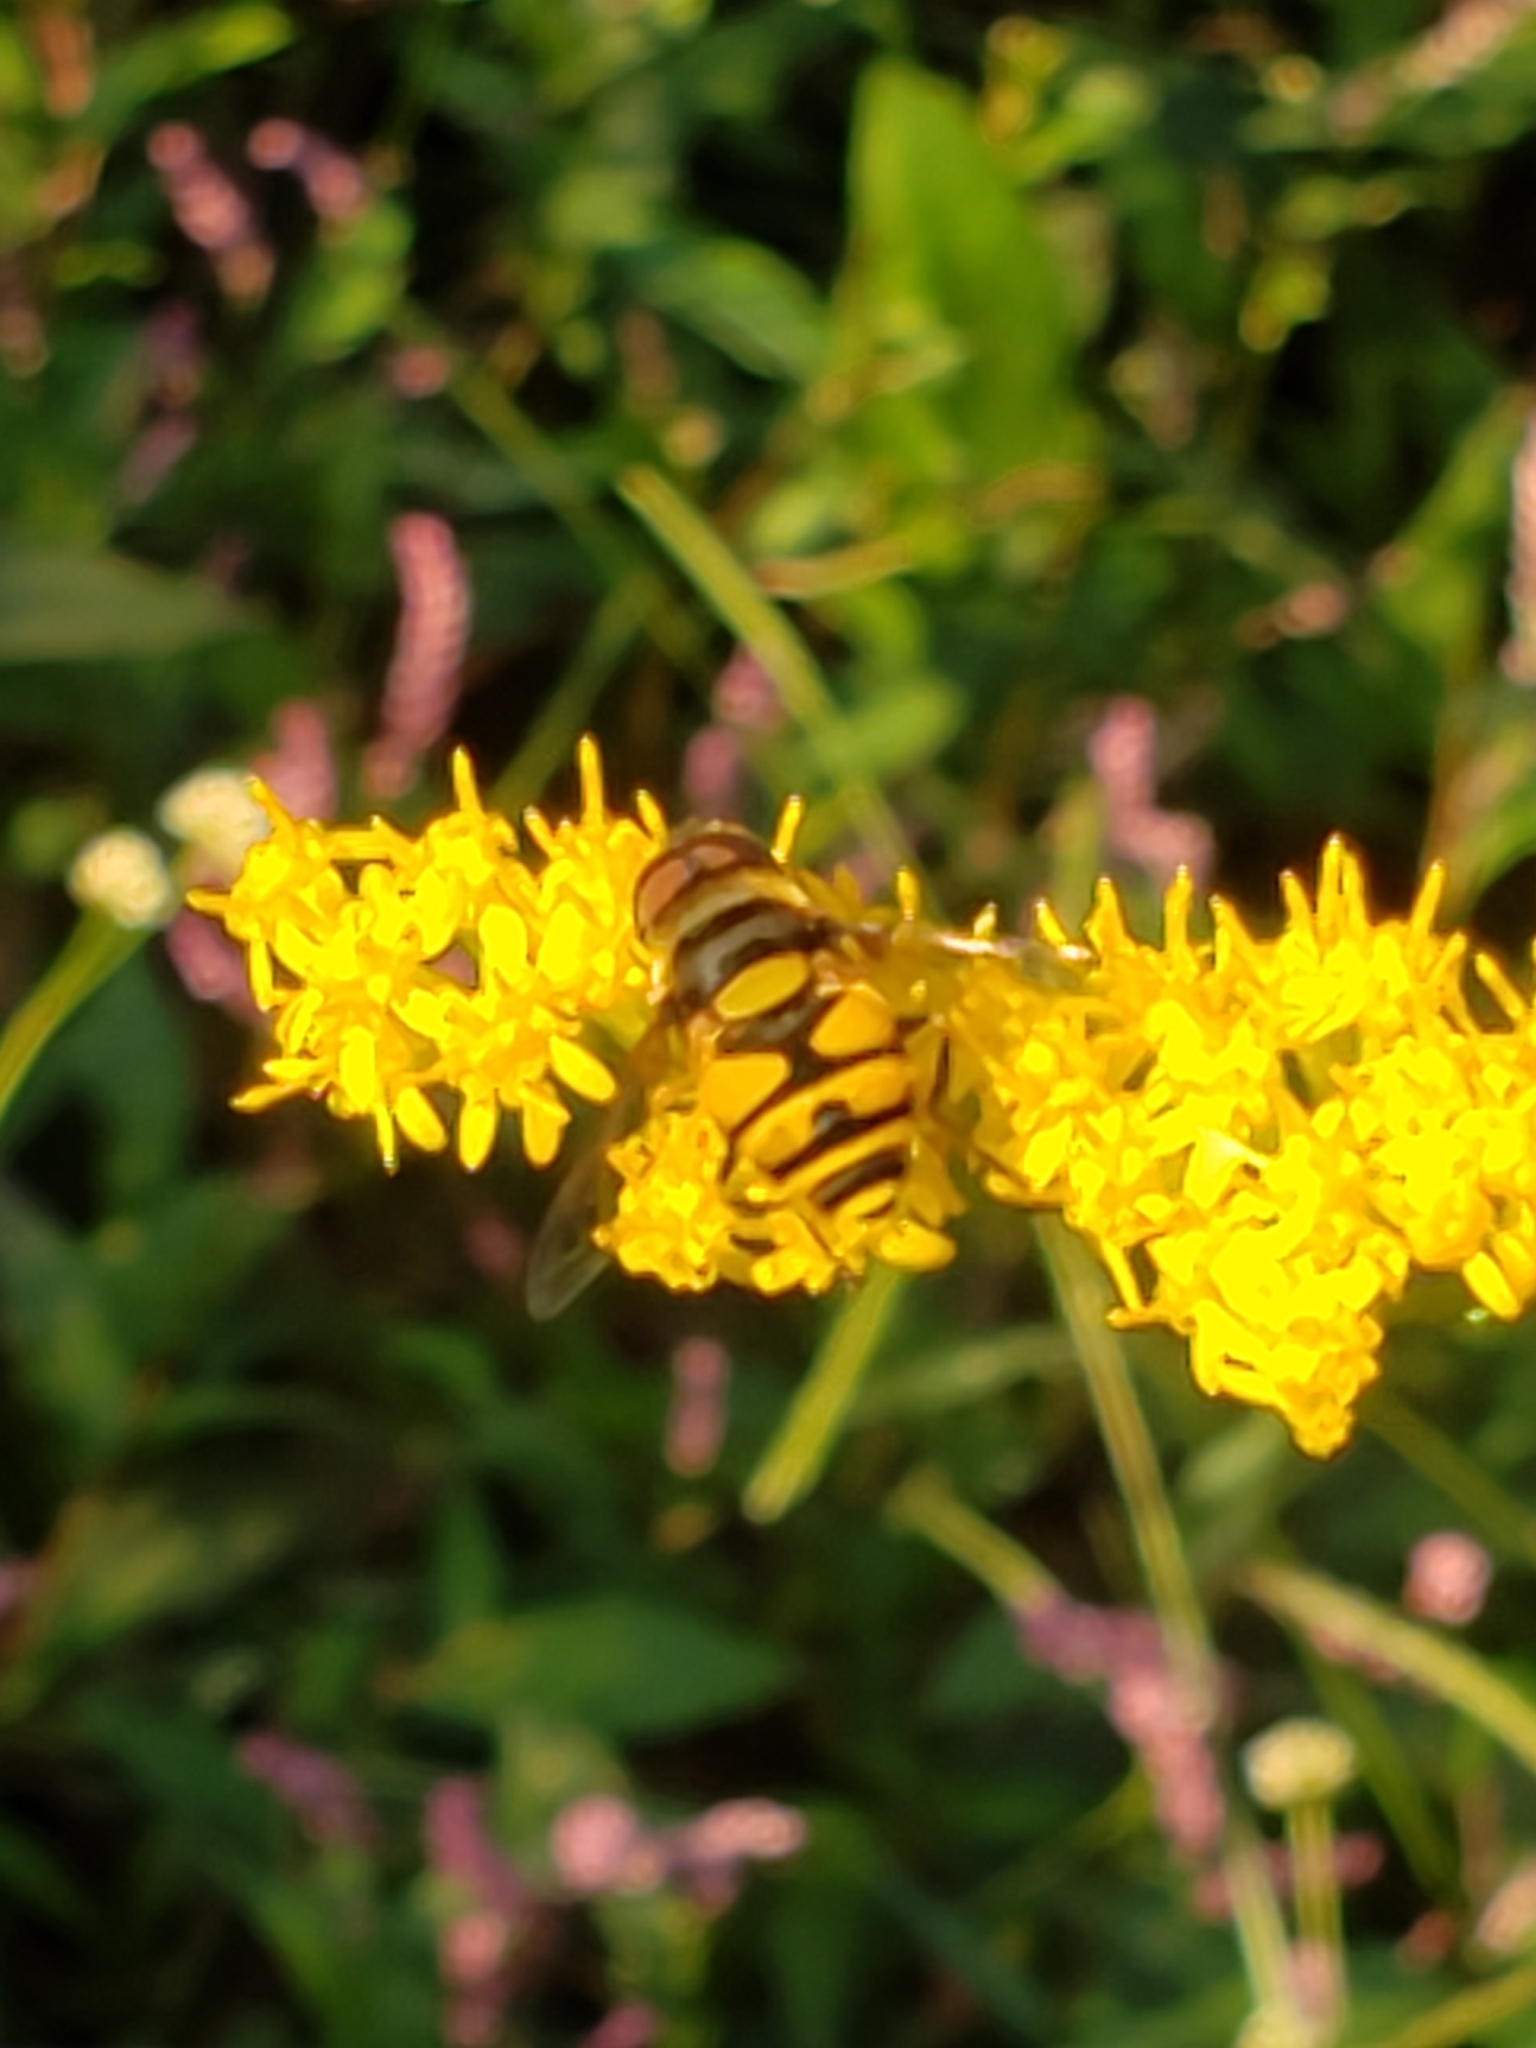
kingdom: Animalia
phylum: Arthropoda
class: Insecta
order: Diptera
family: Syrphidae
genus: Eristalis
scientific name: Eristalis transversa
